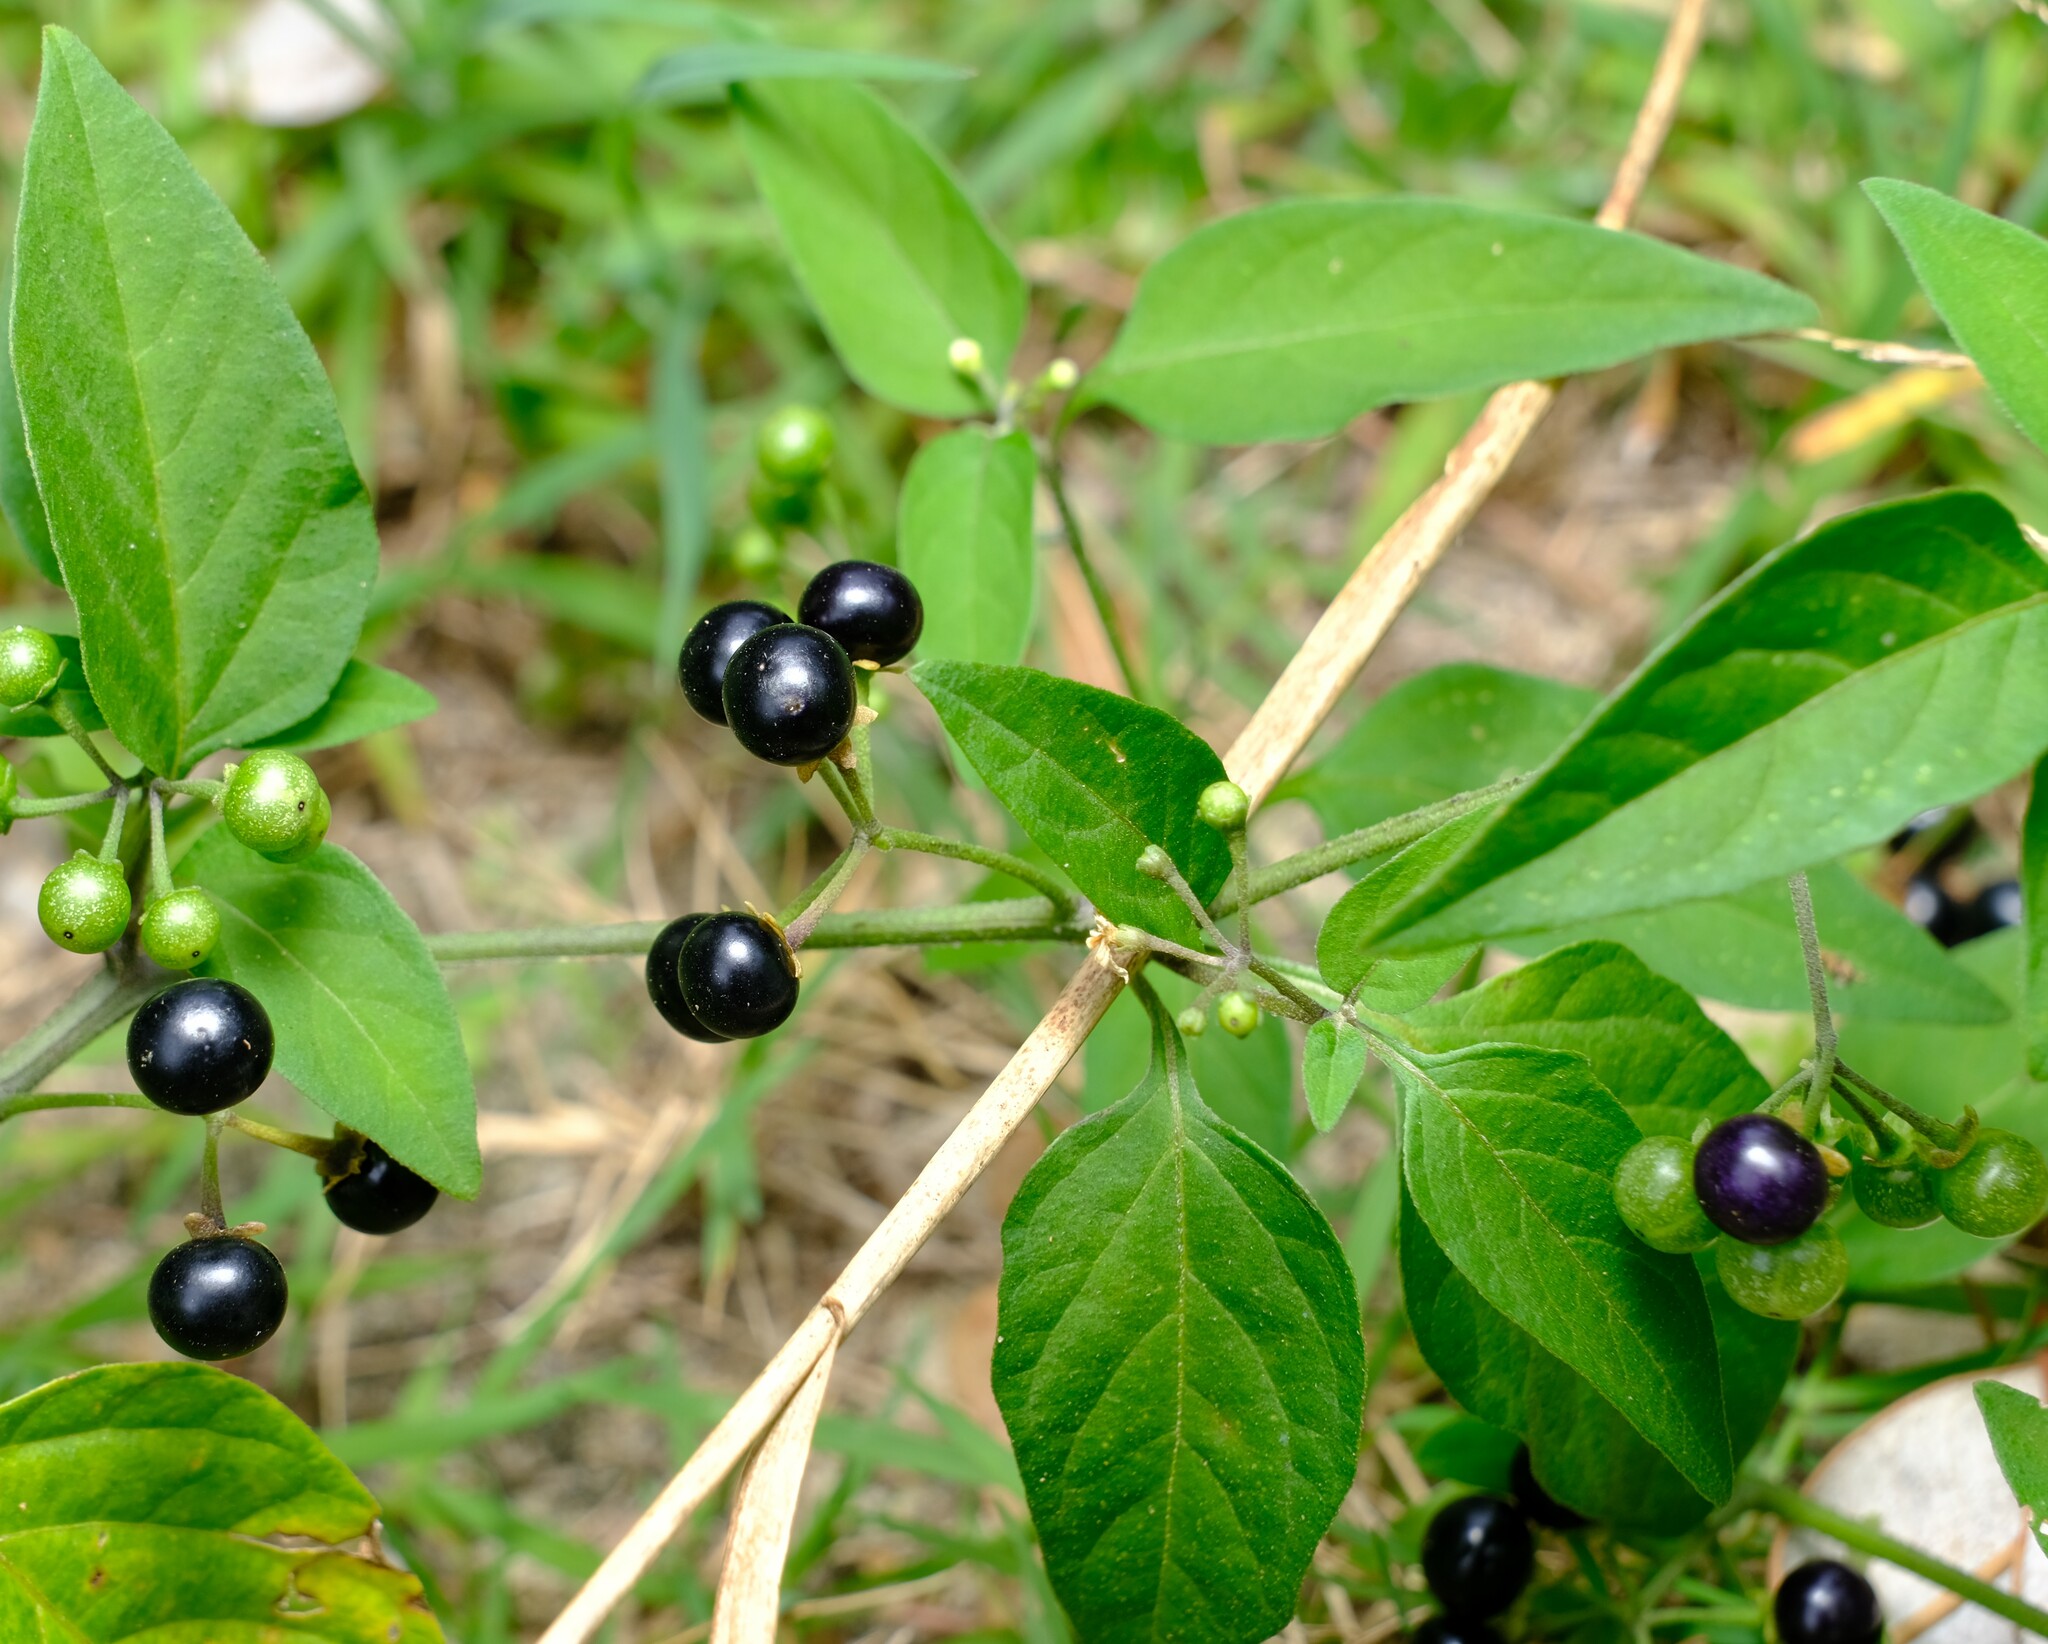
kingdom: Plantae
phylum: Tracheophyta
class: Magnoliopsida
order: Solanales
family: Solanaceae
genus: Solanum
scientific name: Solanum americanum
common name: American black nightshade
